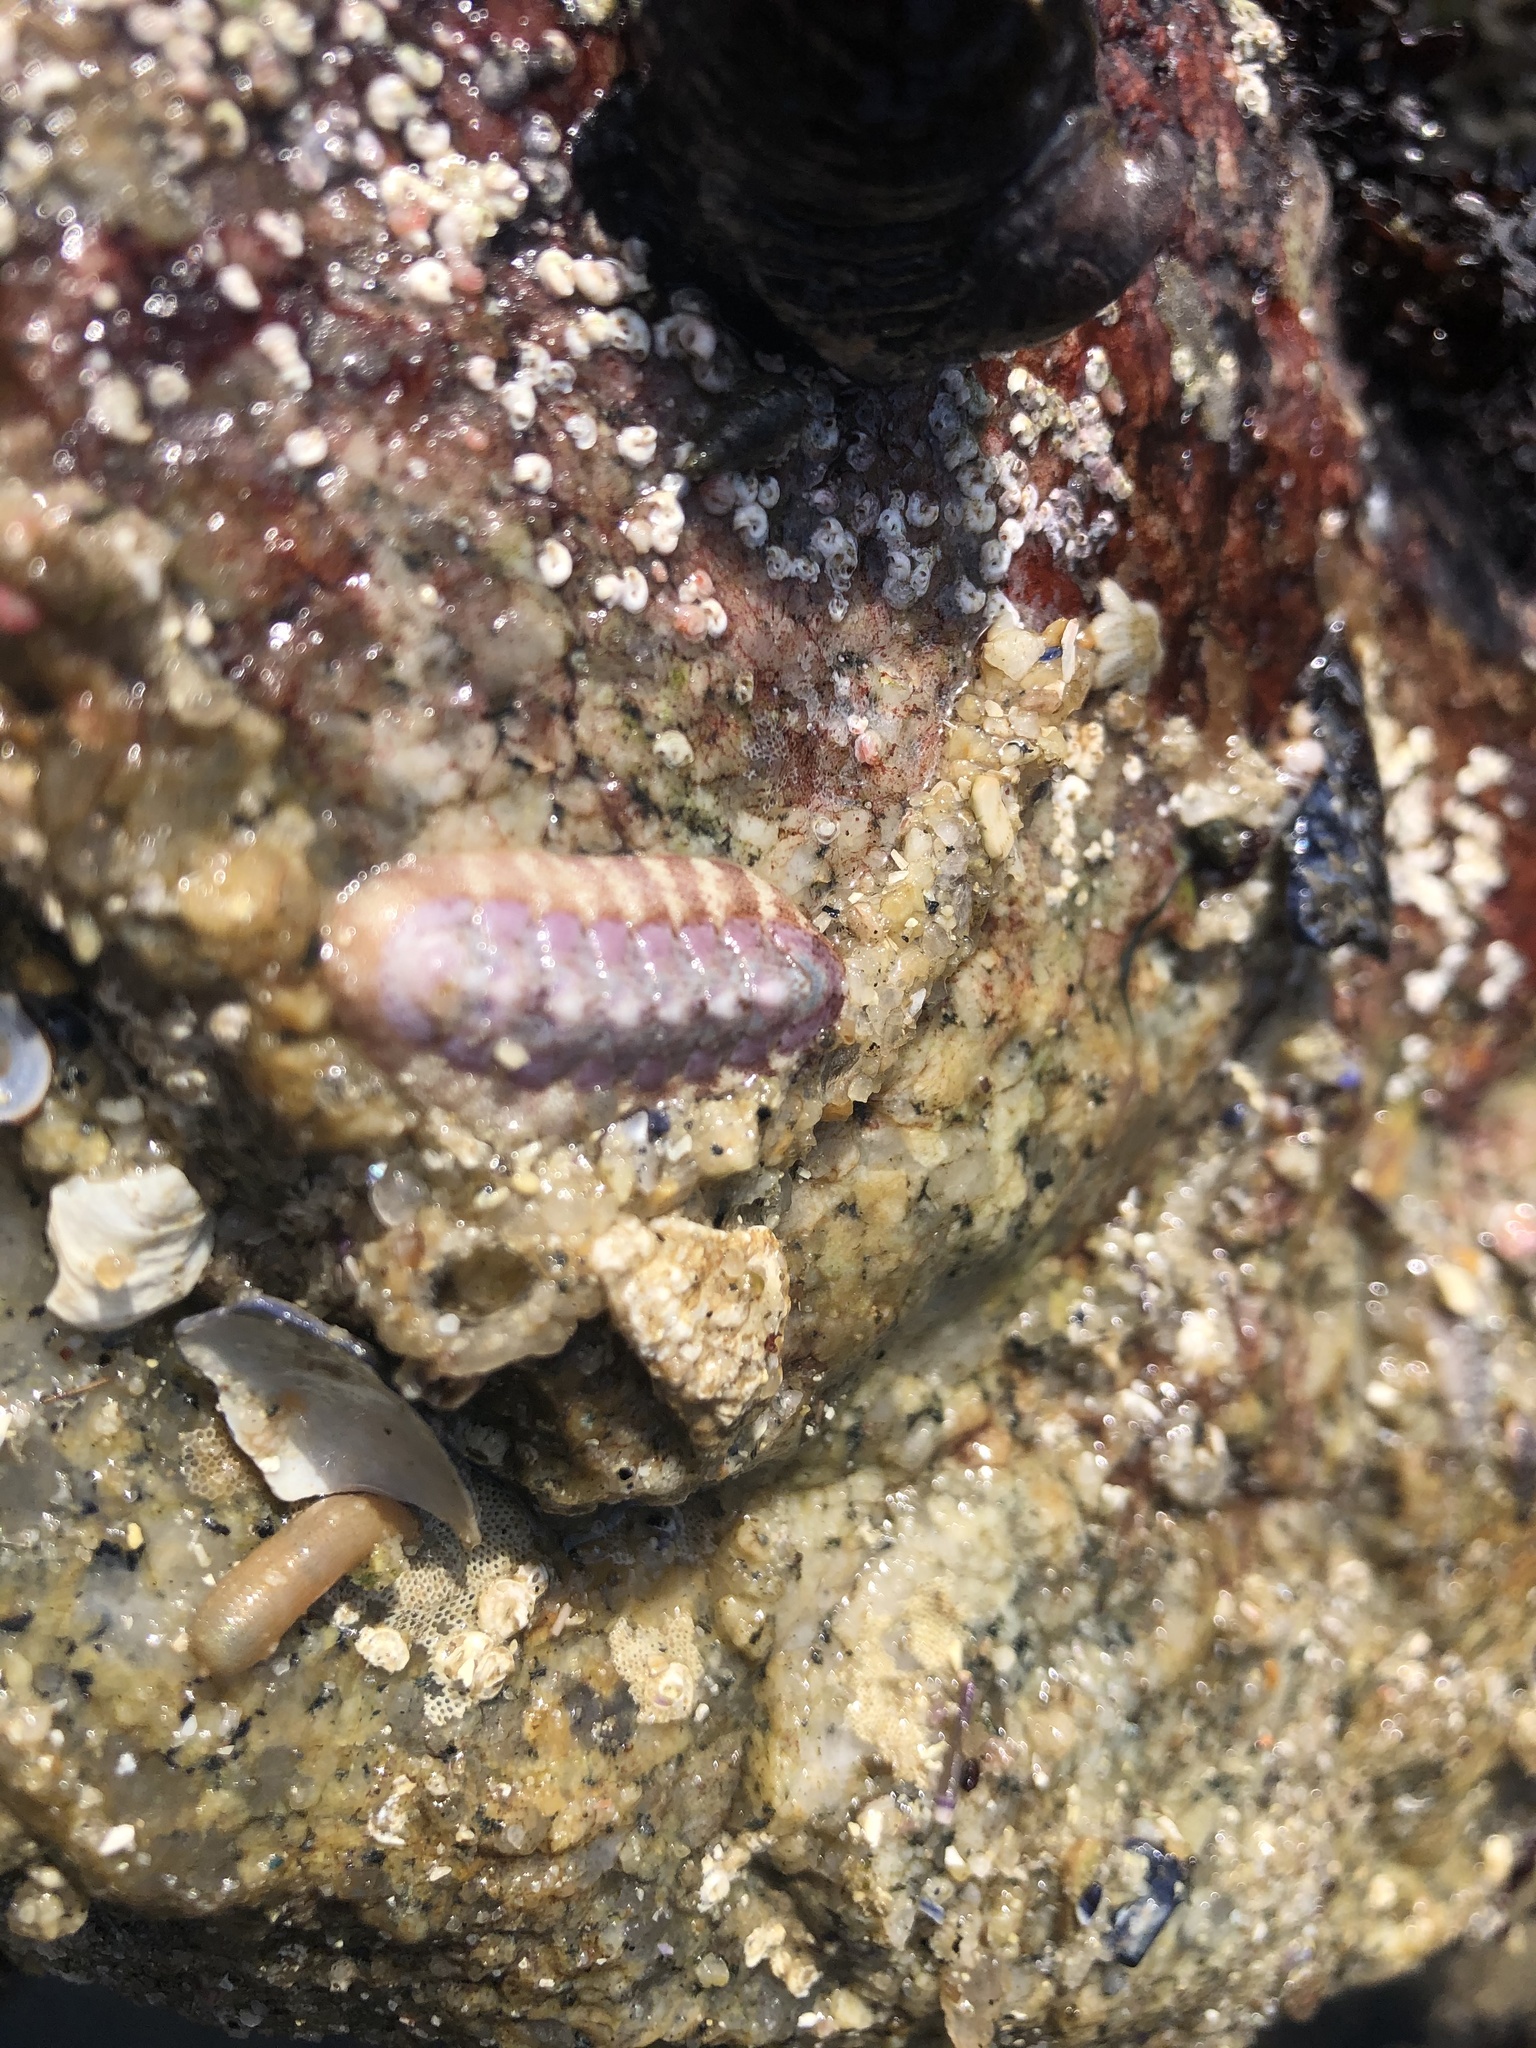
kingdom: Animalia
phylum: Mollusca
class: Polyplacophora
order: Chitonida
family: Ischnochitonidae
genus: Stenoplax
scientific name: Stenoplax heathiana
